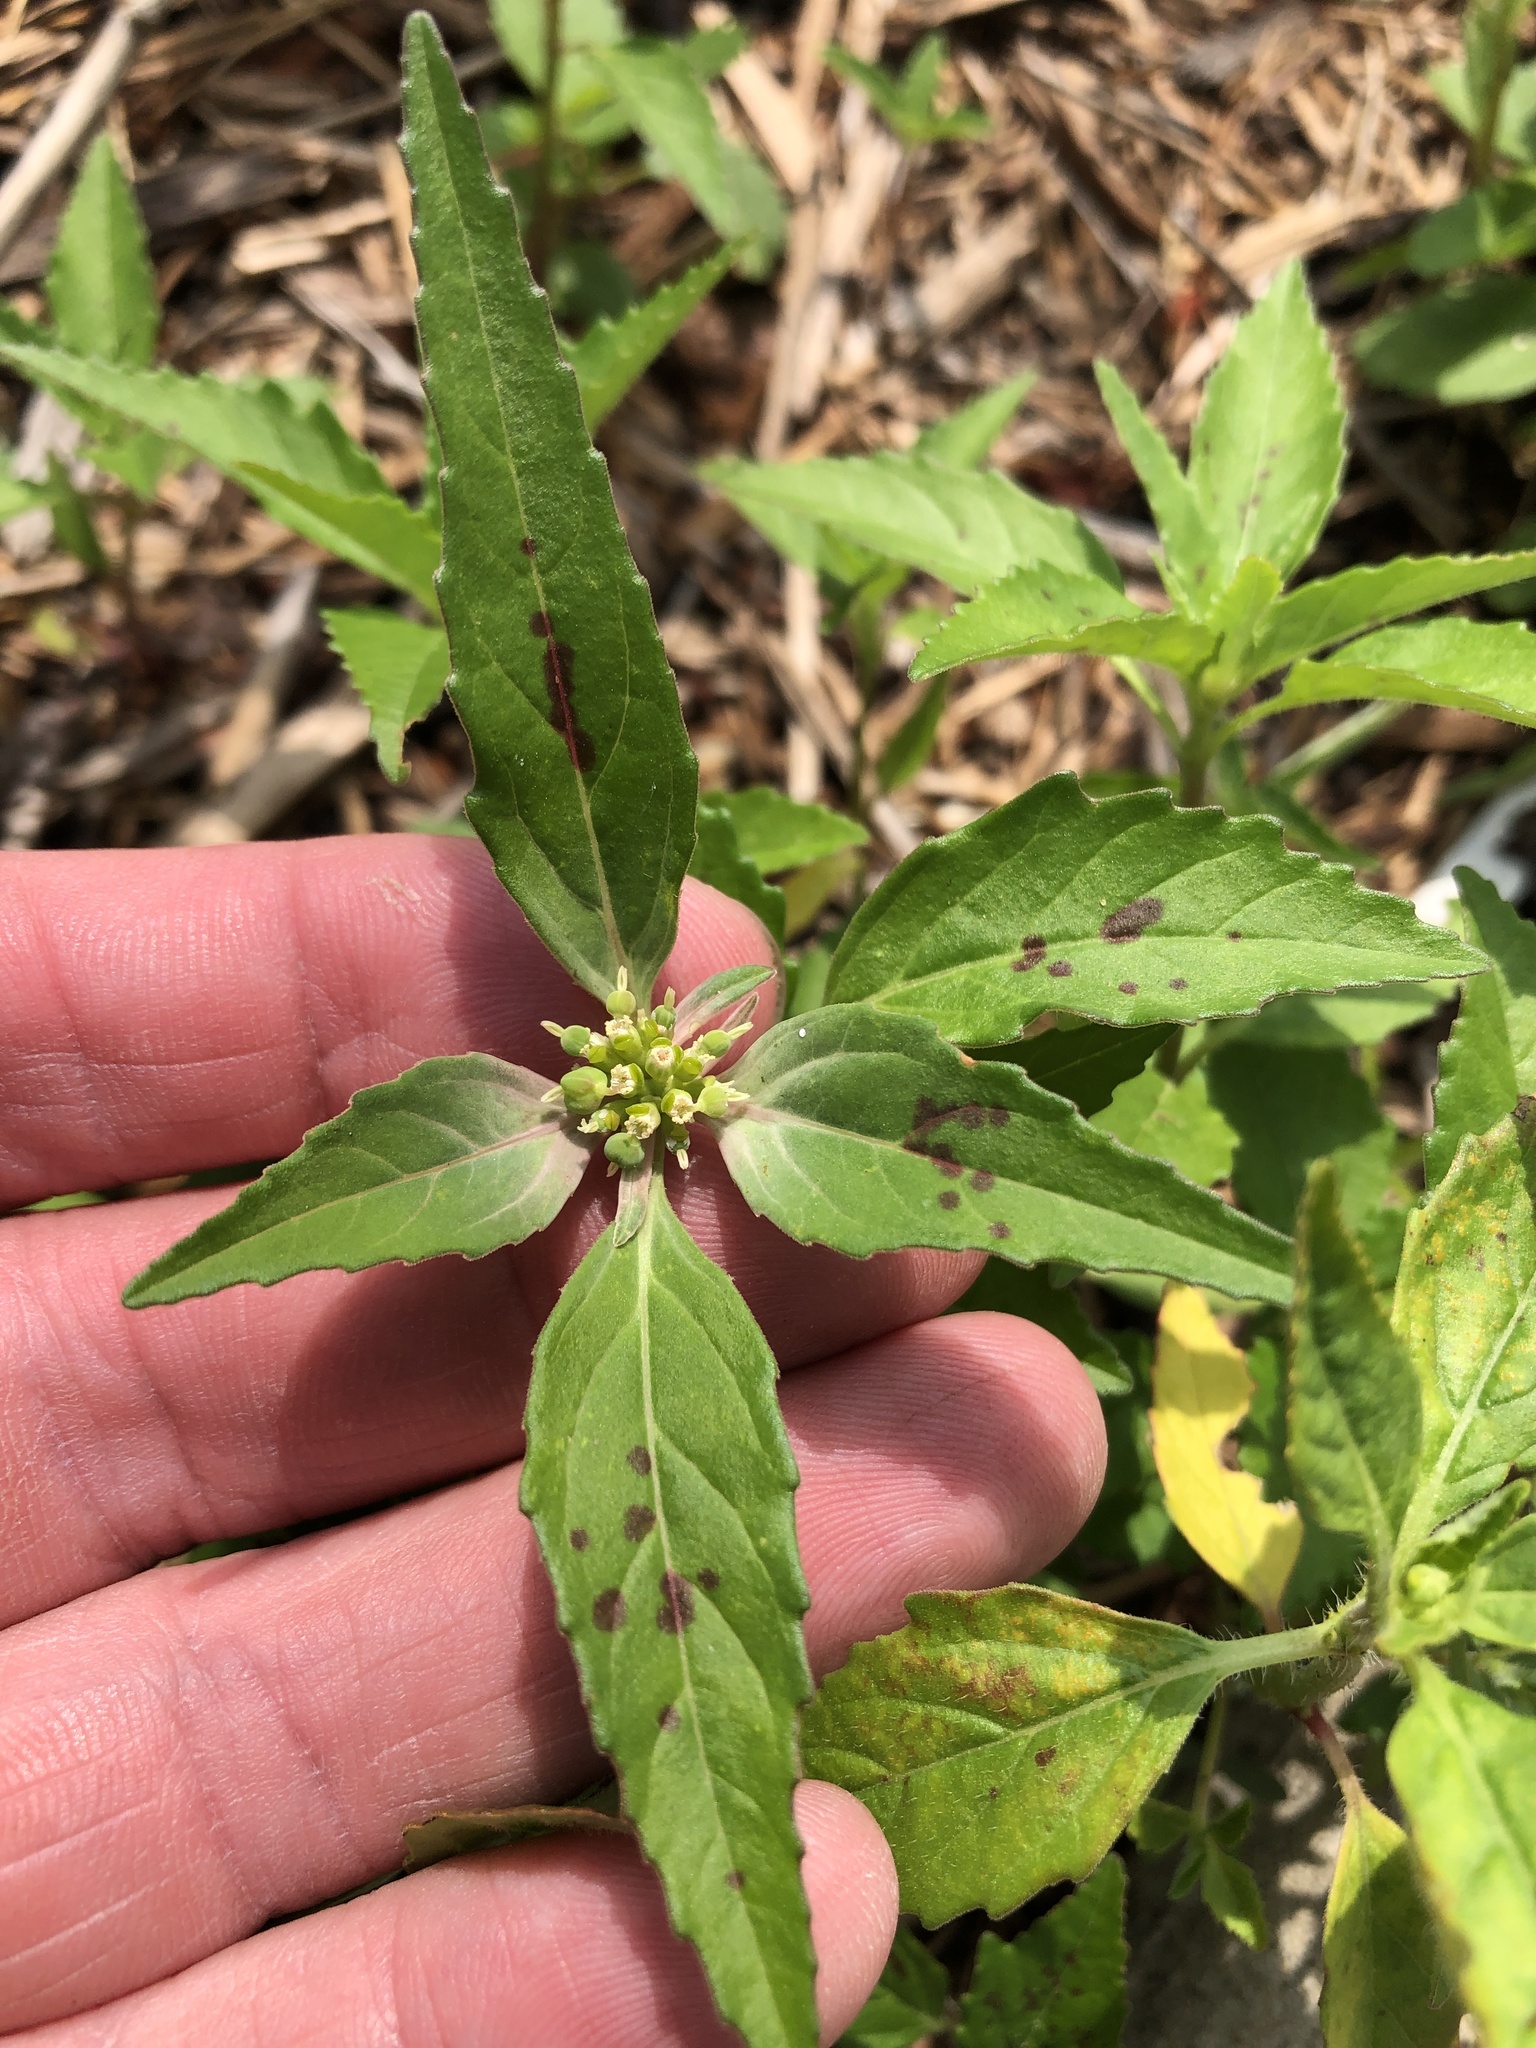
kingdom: Plantae
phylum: Tracheophyta
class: Magnoliopsida
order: Malpighiales
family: Euphorbiaceae
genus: Euphorbia
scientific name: Euphorbia dentata
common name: Dentate spurge
